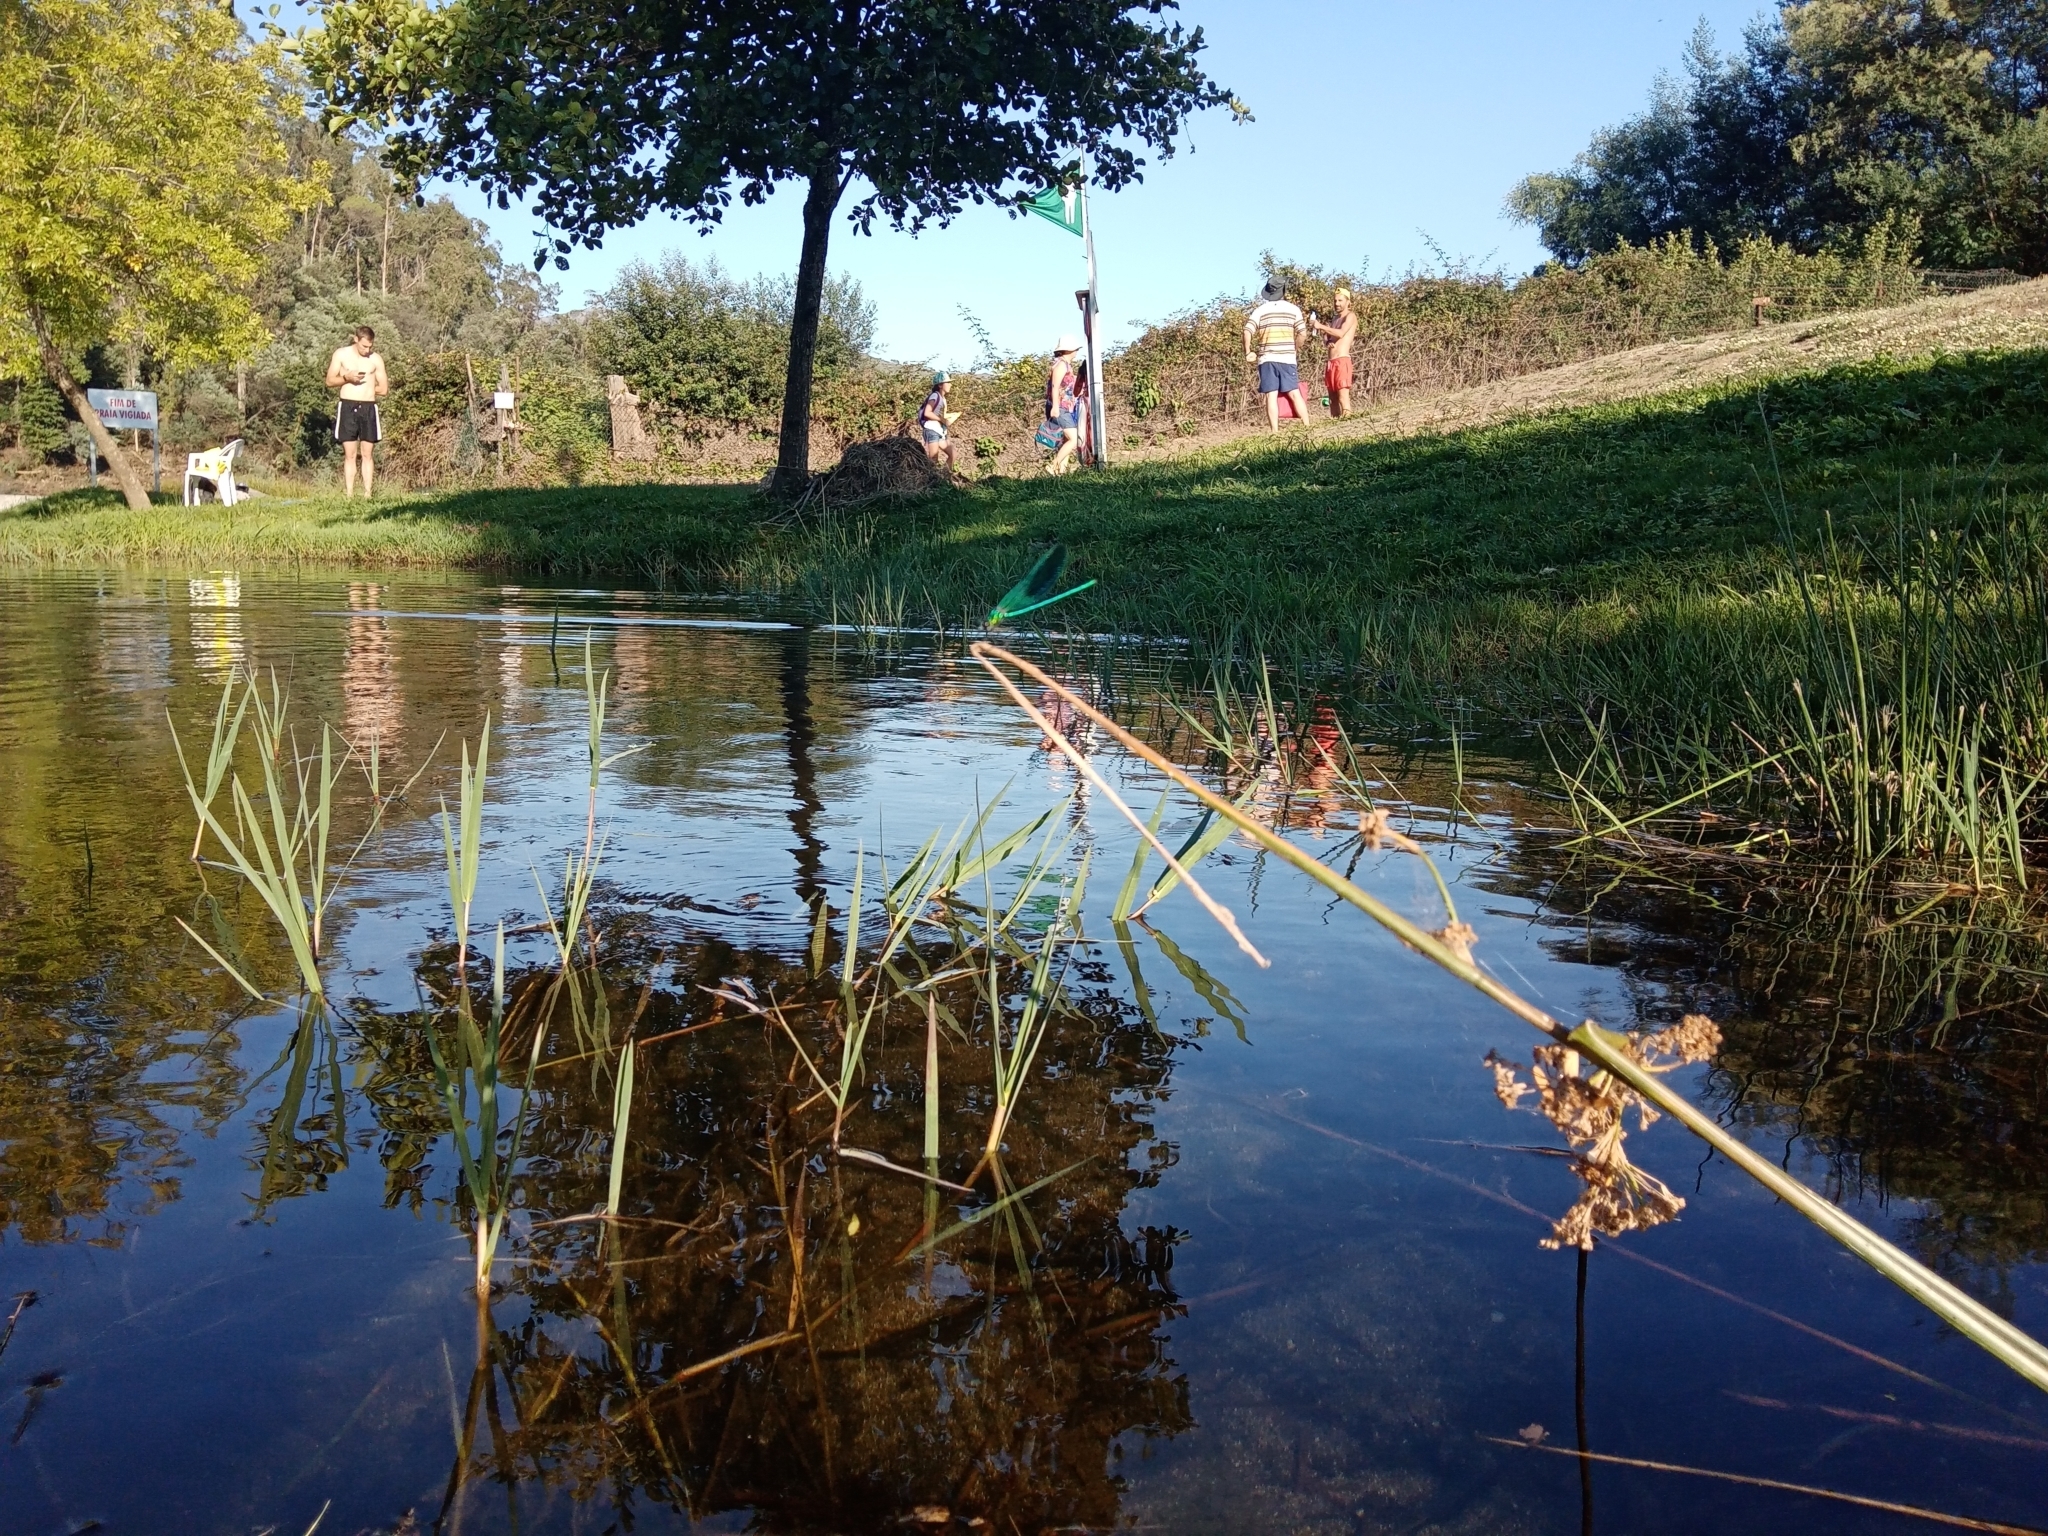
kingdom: Animalia
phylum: Arthropoda
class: Insecta
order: Odonata
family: Calopterygidae
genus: Calopteryx
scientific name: Calopteryx xanthostoma
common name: Western demoiselle
